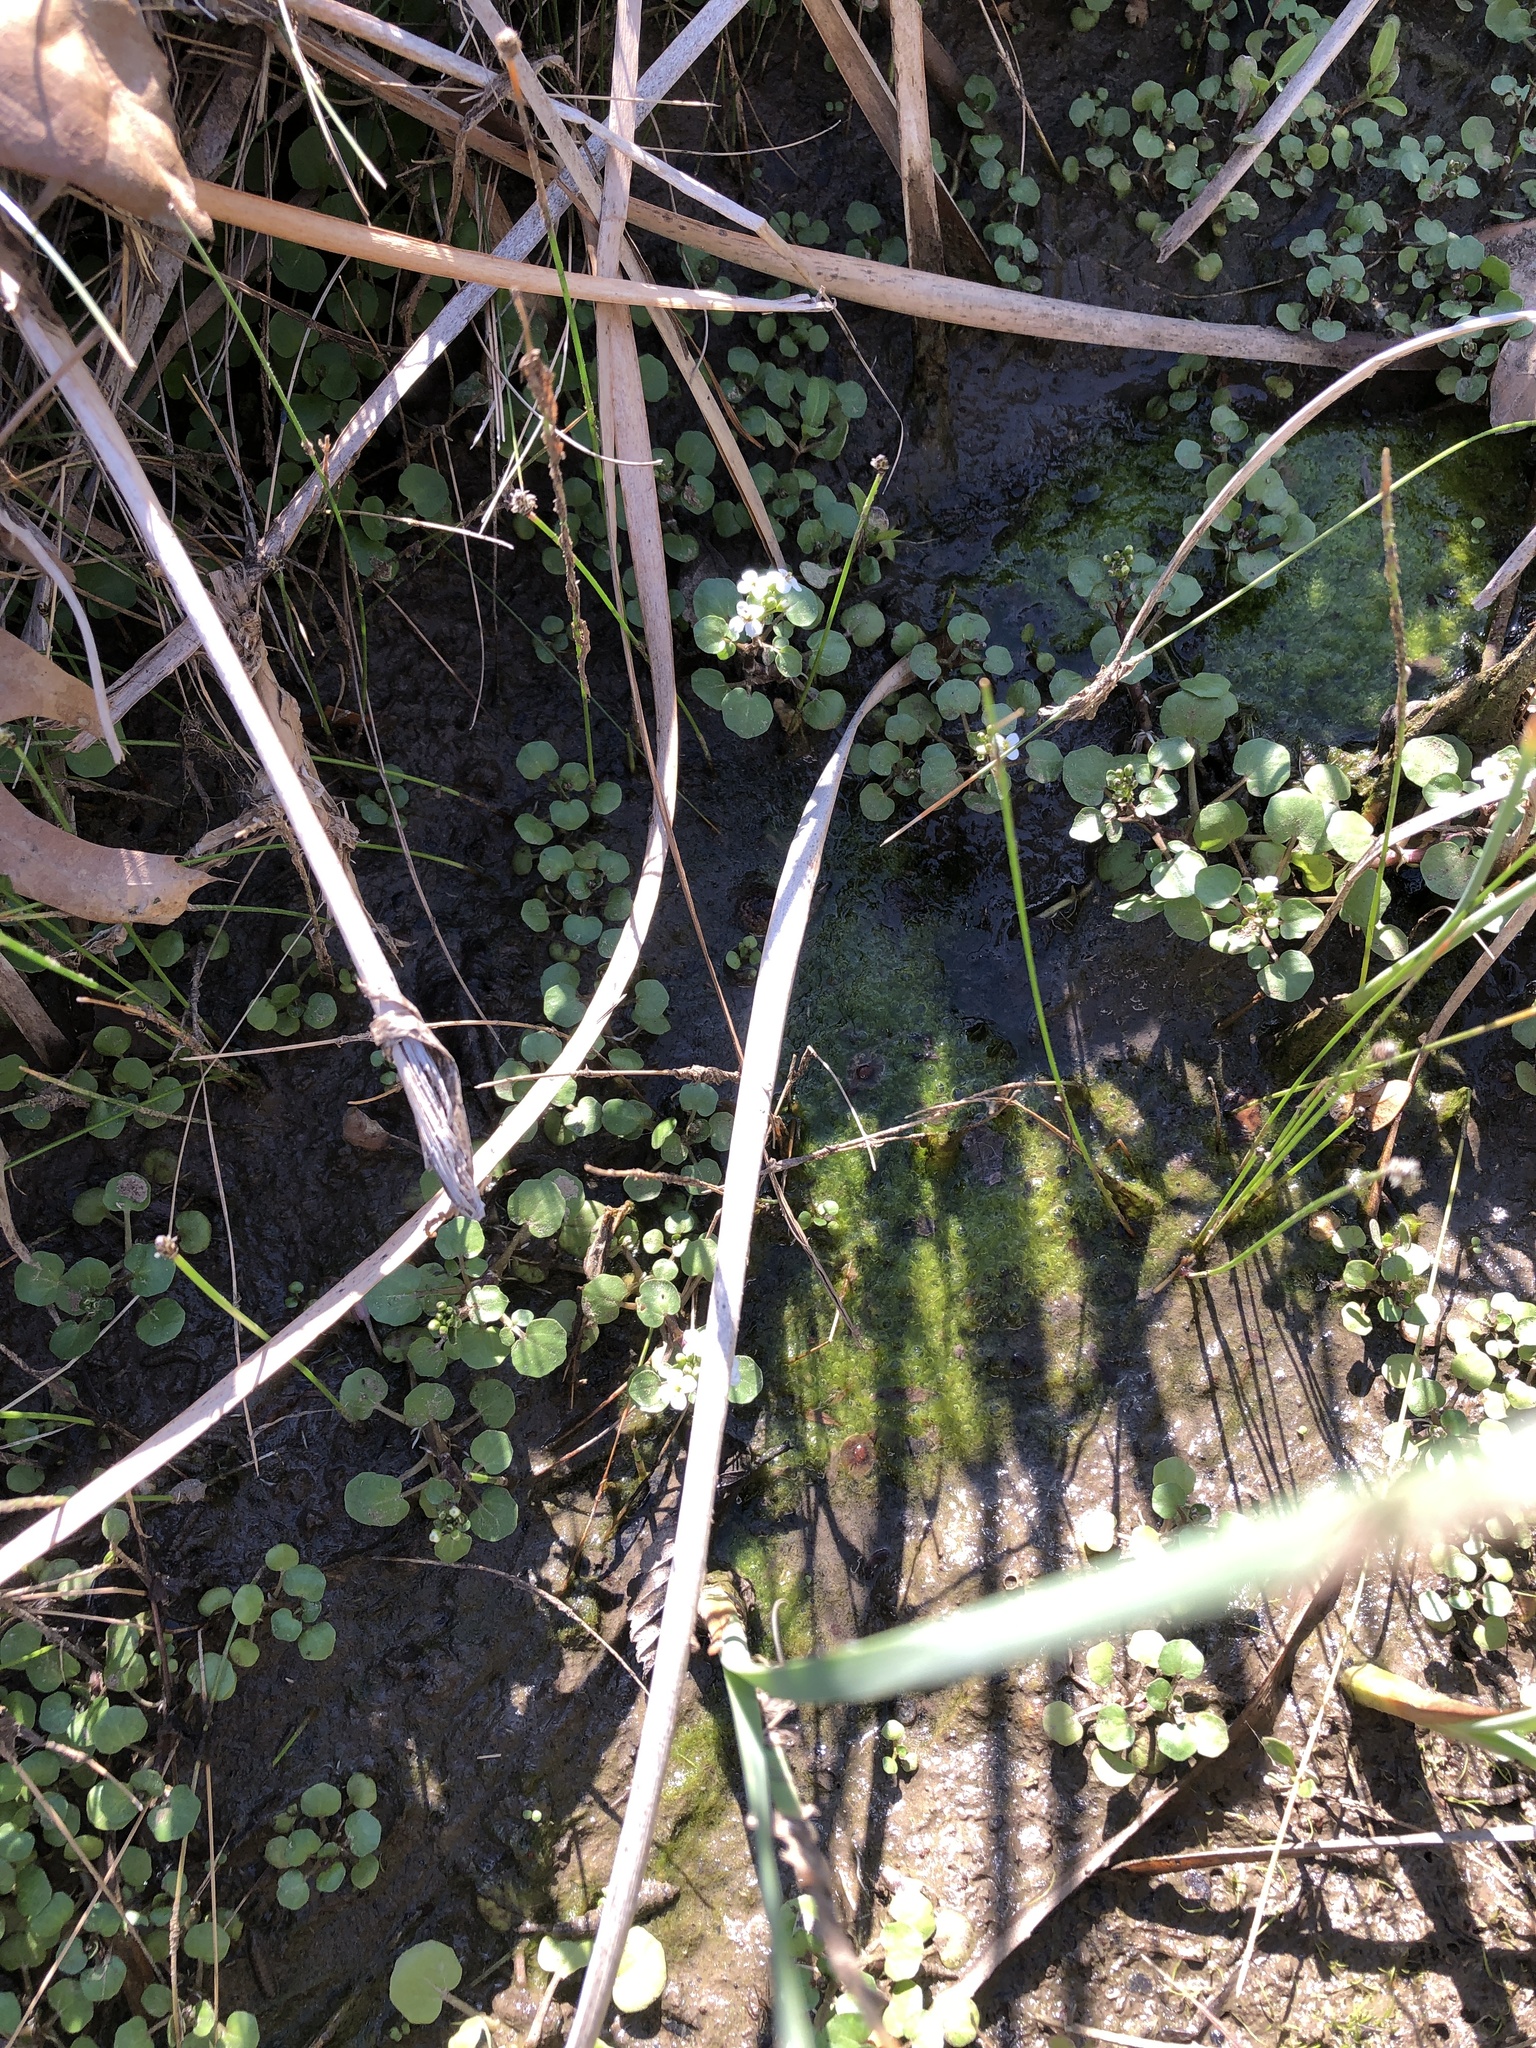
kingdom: Plantae
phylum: Tracheophyta
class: Magnoliopsida
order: Brassicales
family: Brassicaceae
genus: Nasturtium
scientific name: Nasturtium officinale
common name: Watercress
